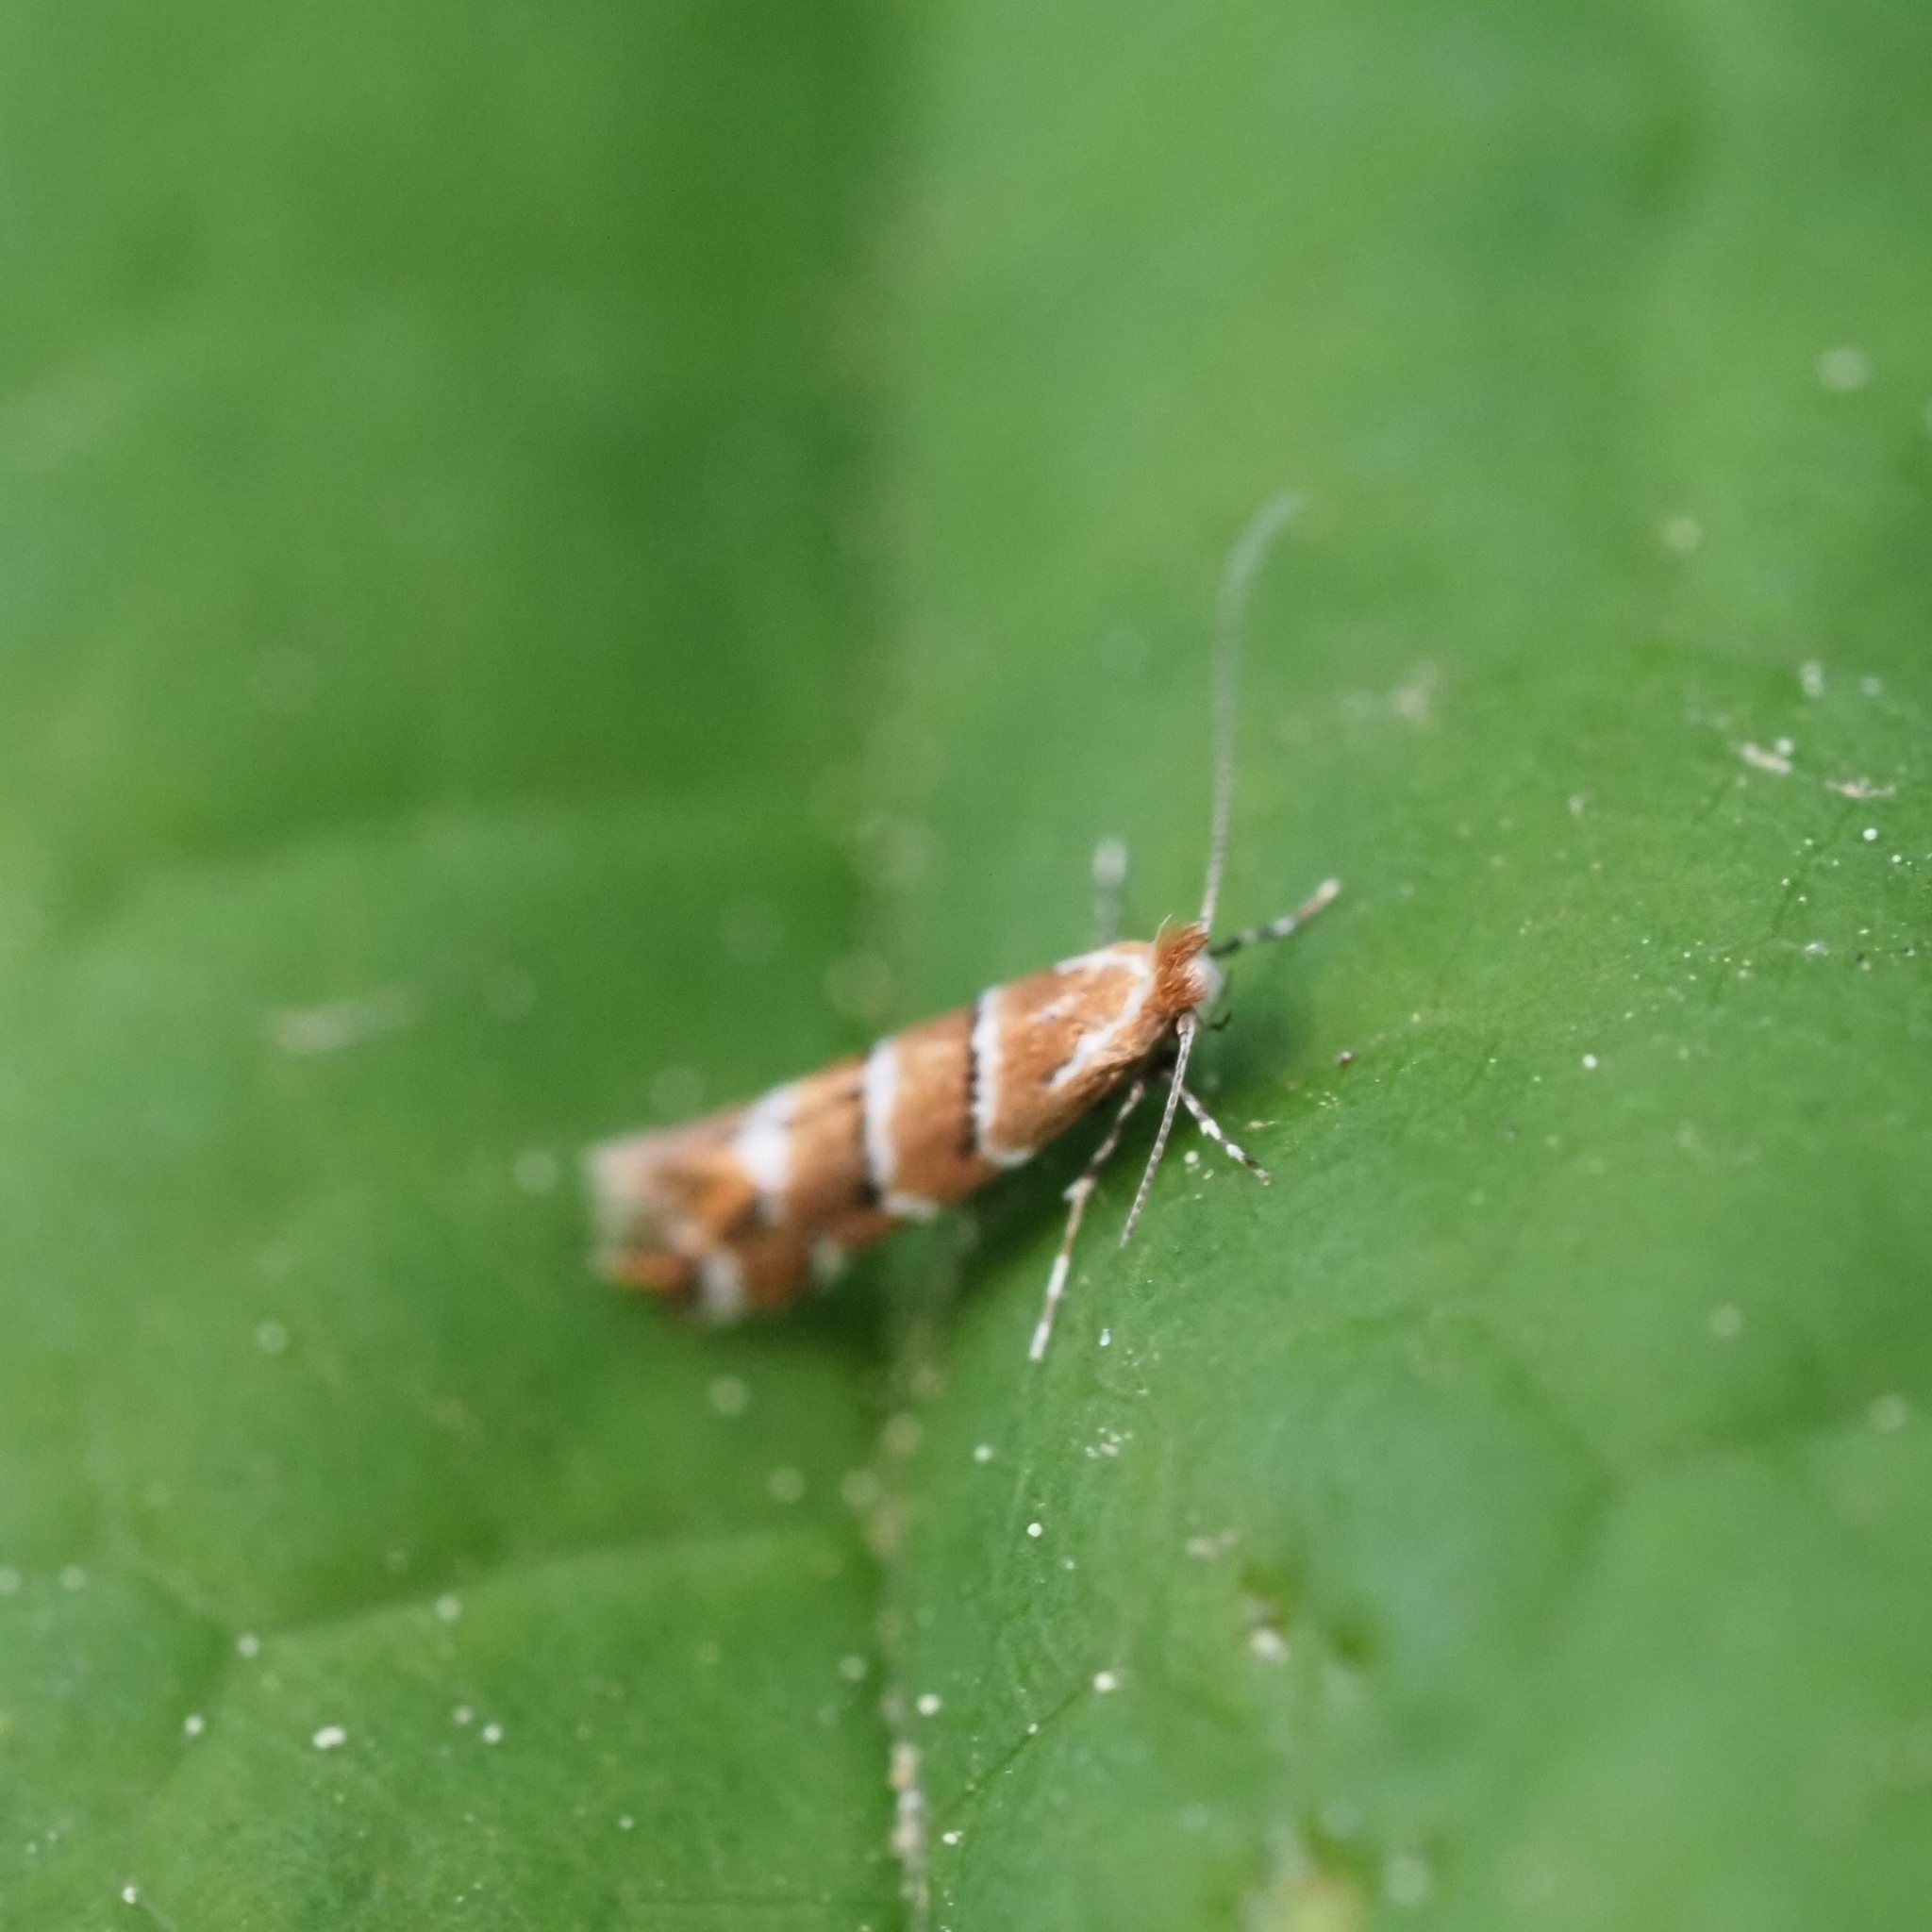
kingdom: Animalia
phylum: Arthropoda
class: Insecta
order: Lepidoptera
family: Gracillariidae
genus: Cameraria
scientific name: Cameraria ohridella
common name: Horse-chestnut leaf-miner
